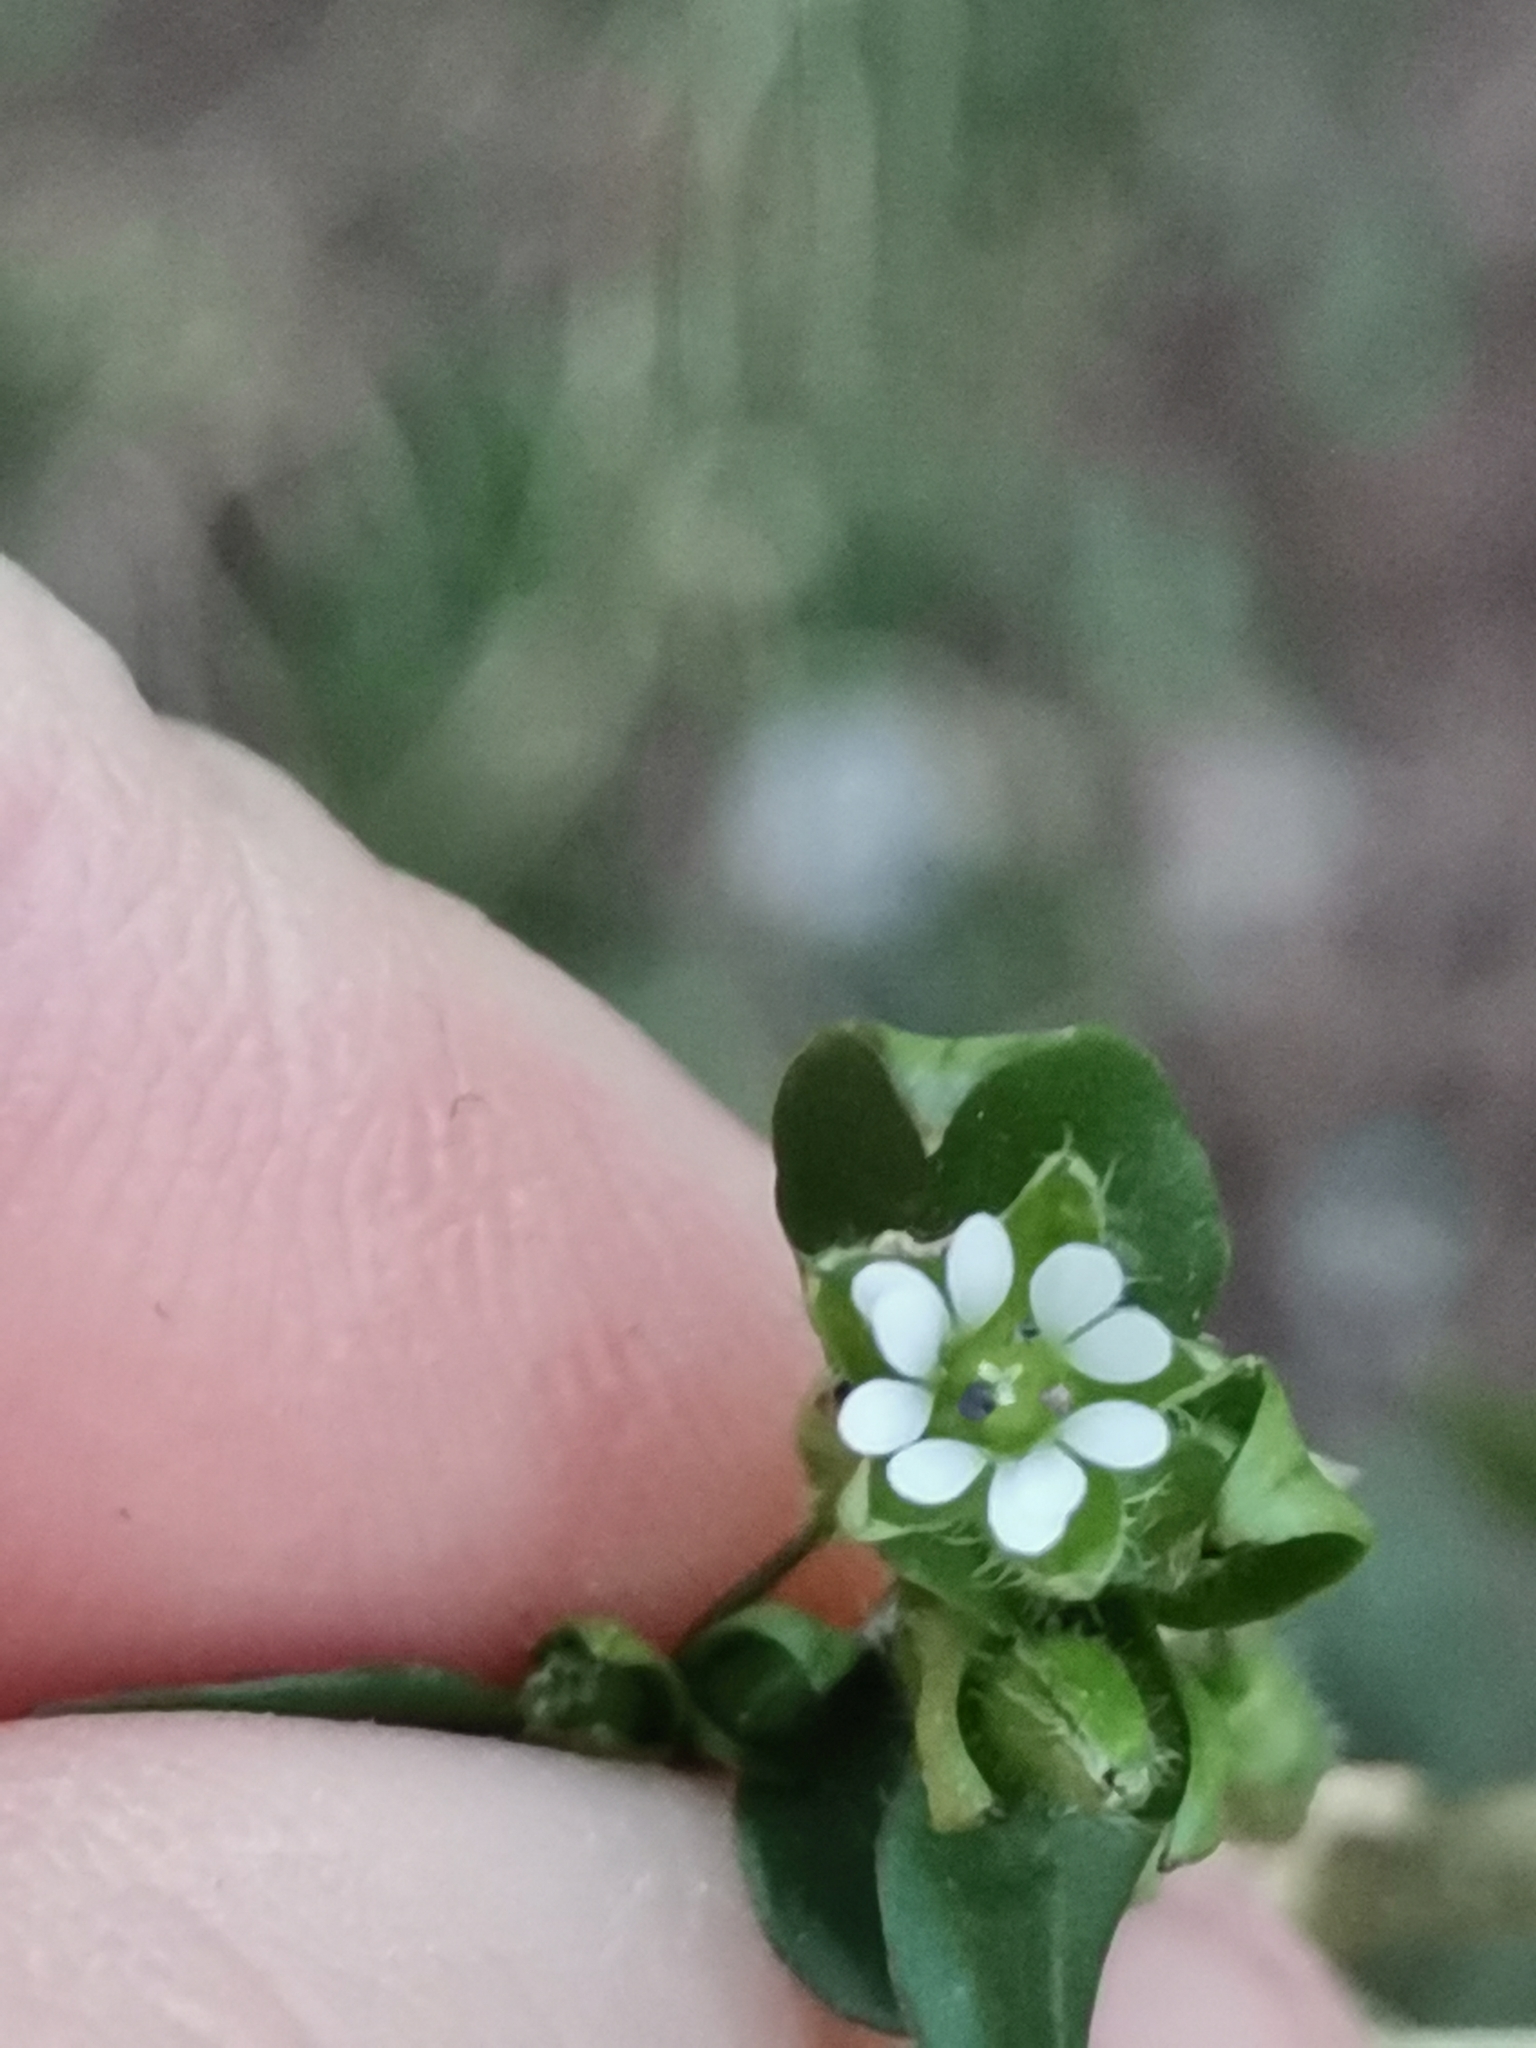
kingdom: Plantae
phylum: Tracheophyta
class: Magnoliopsida
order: Caryophyllales
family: Caryophyllaceae
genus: Stellaria
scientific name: Stellaria media
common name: Common chickweed
